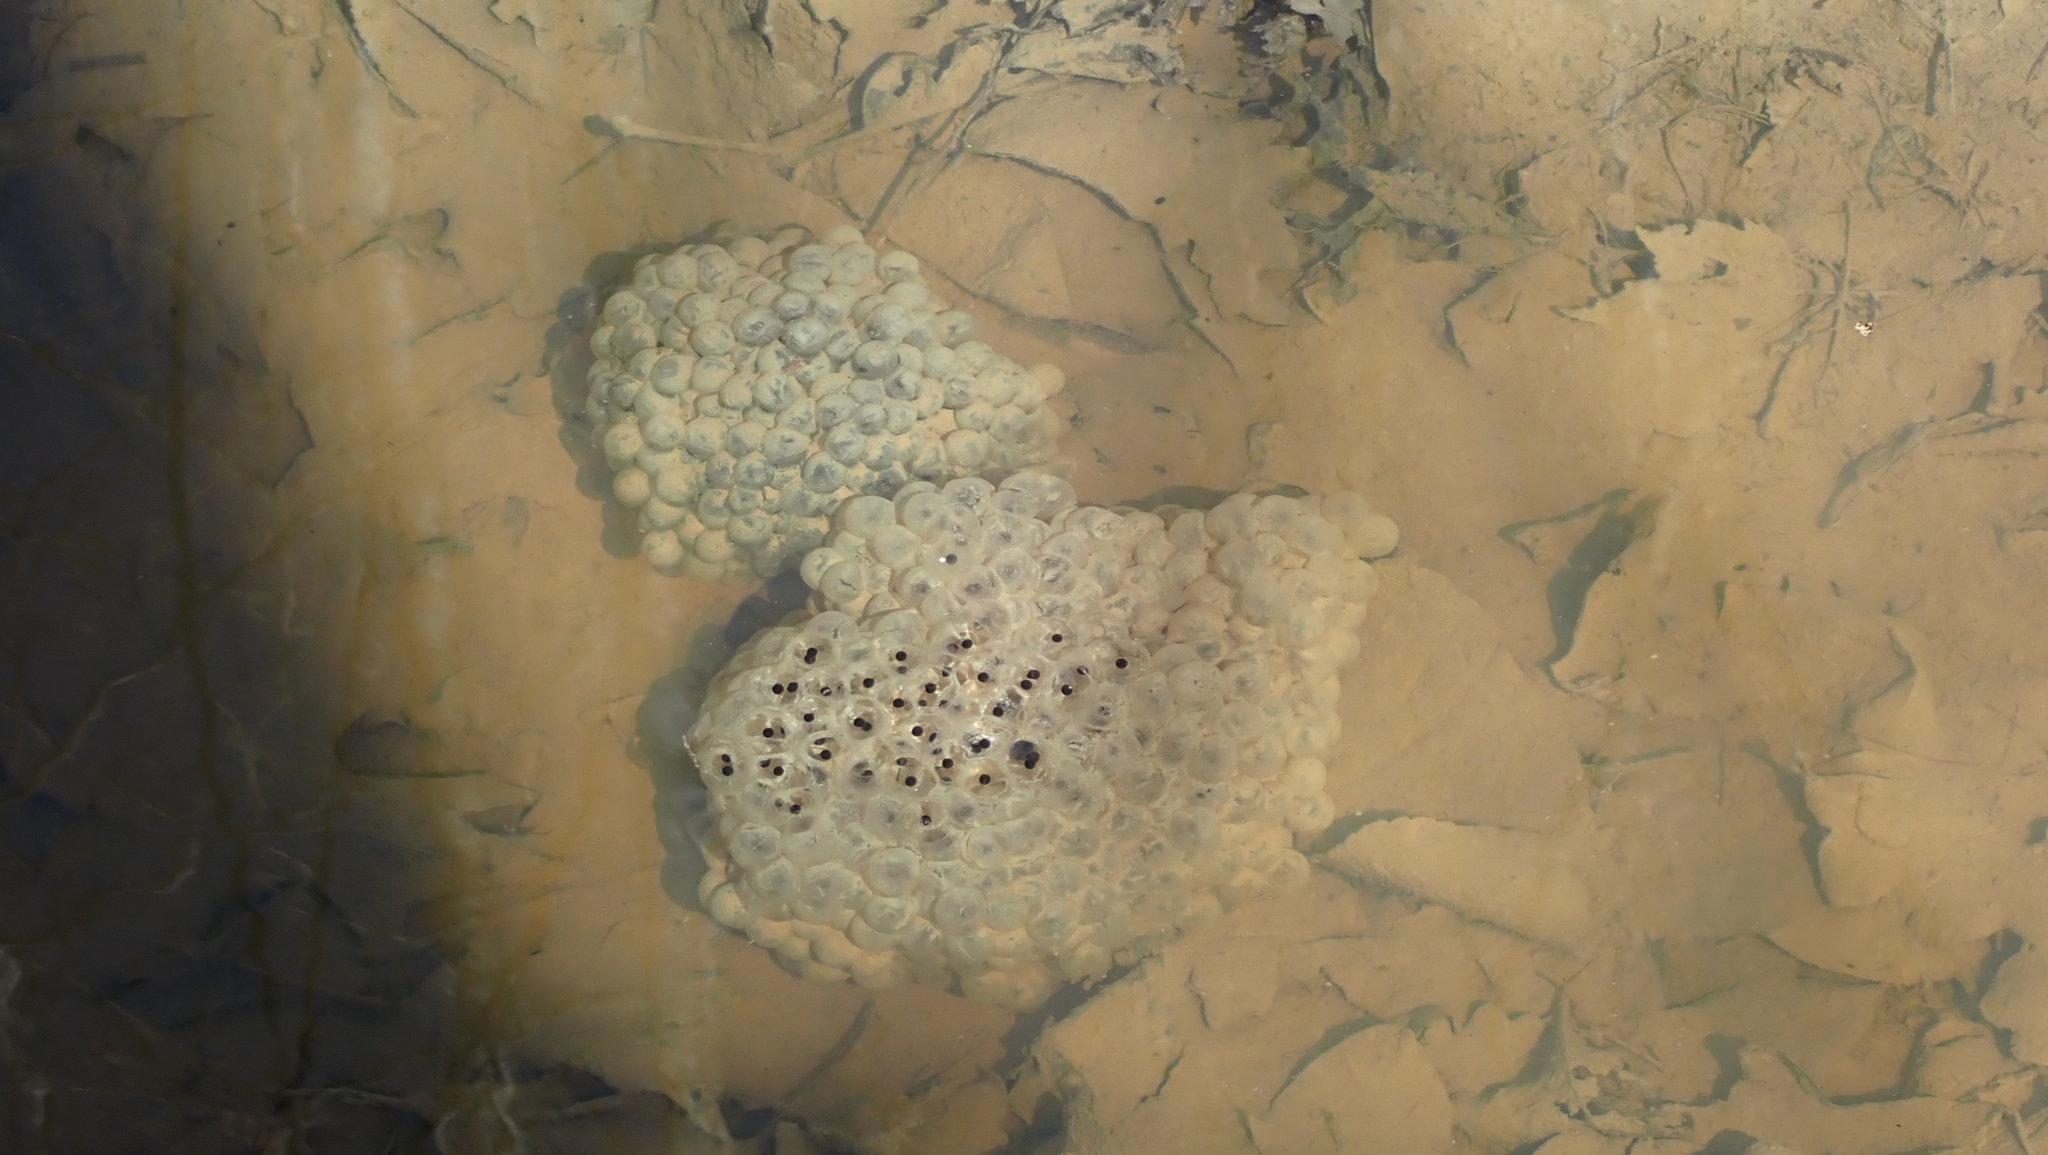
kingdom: Animalia
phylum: Chordata
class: Amphibia
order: Anura
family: Ranidae
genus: Lithobates
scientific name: Lithobates sylvaticus
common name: Wood frog
